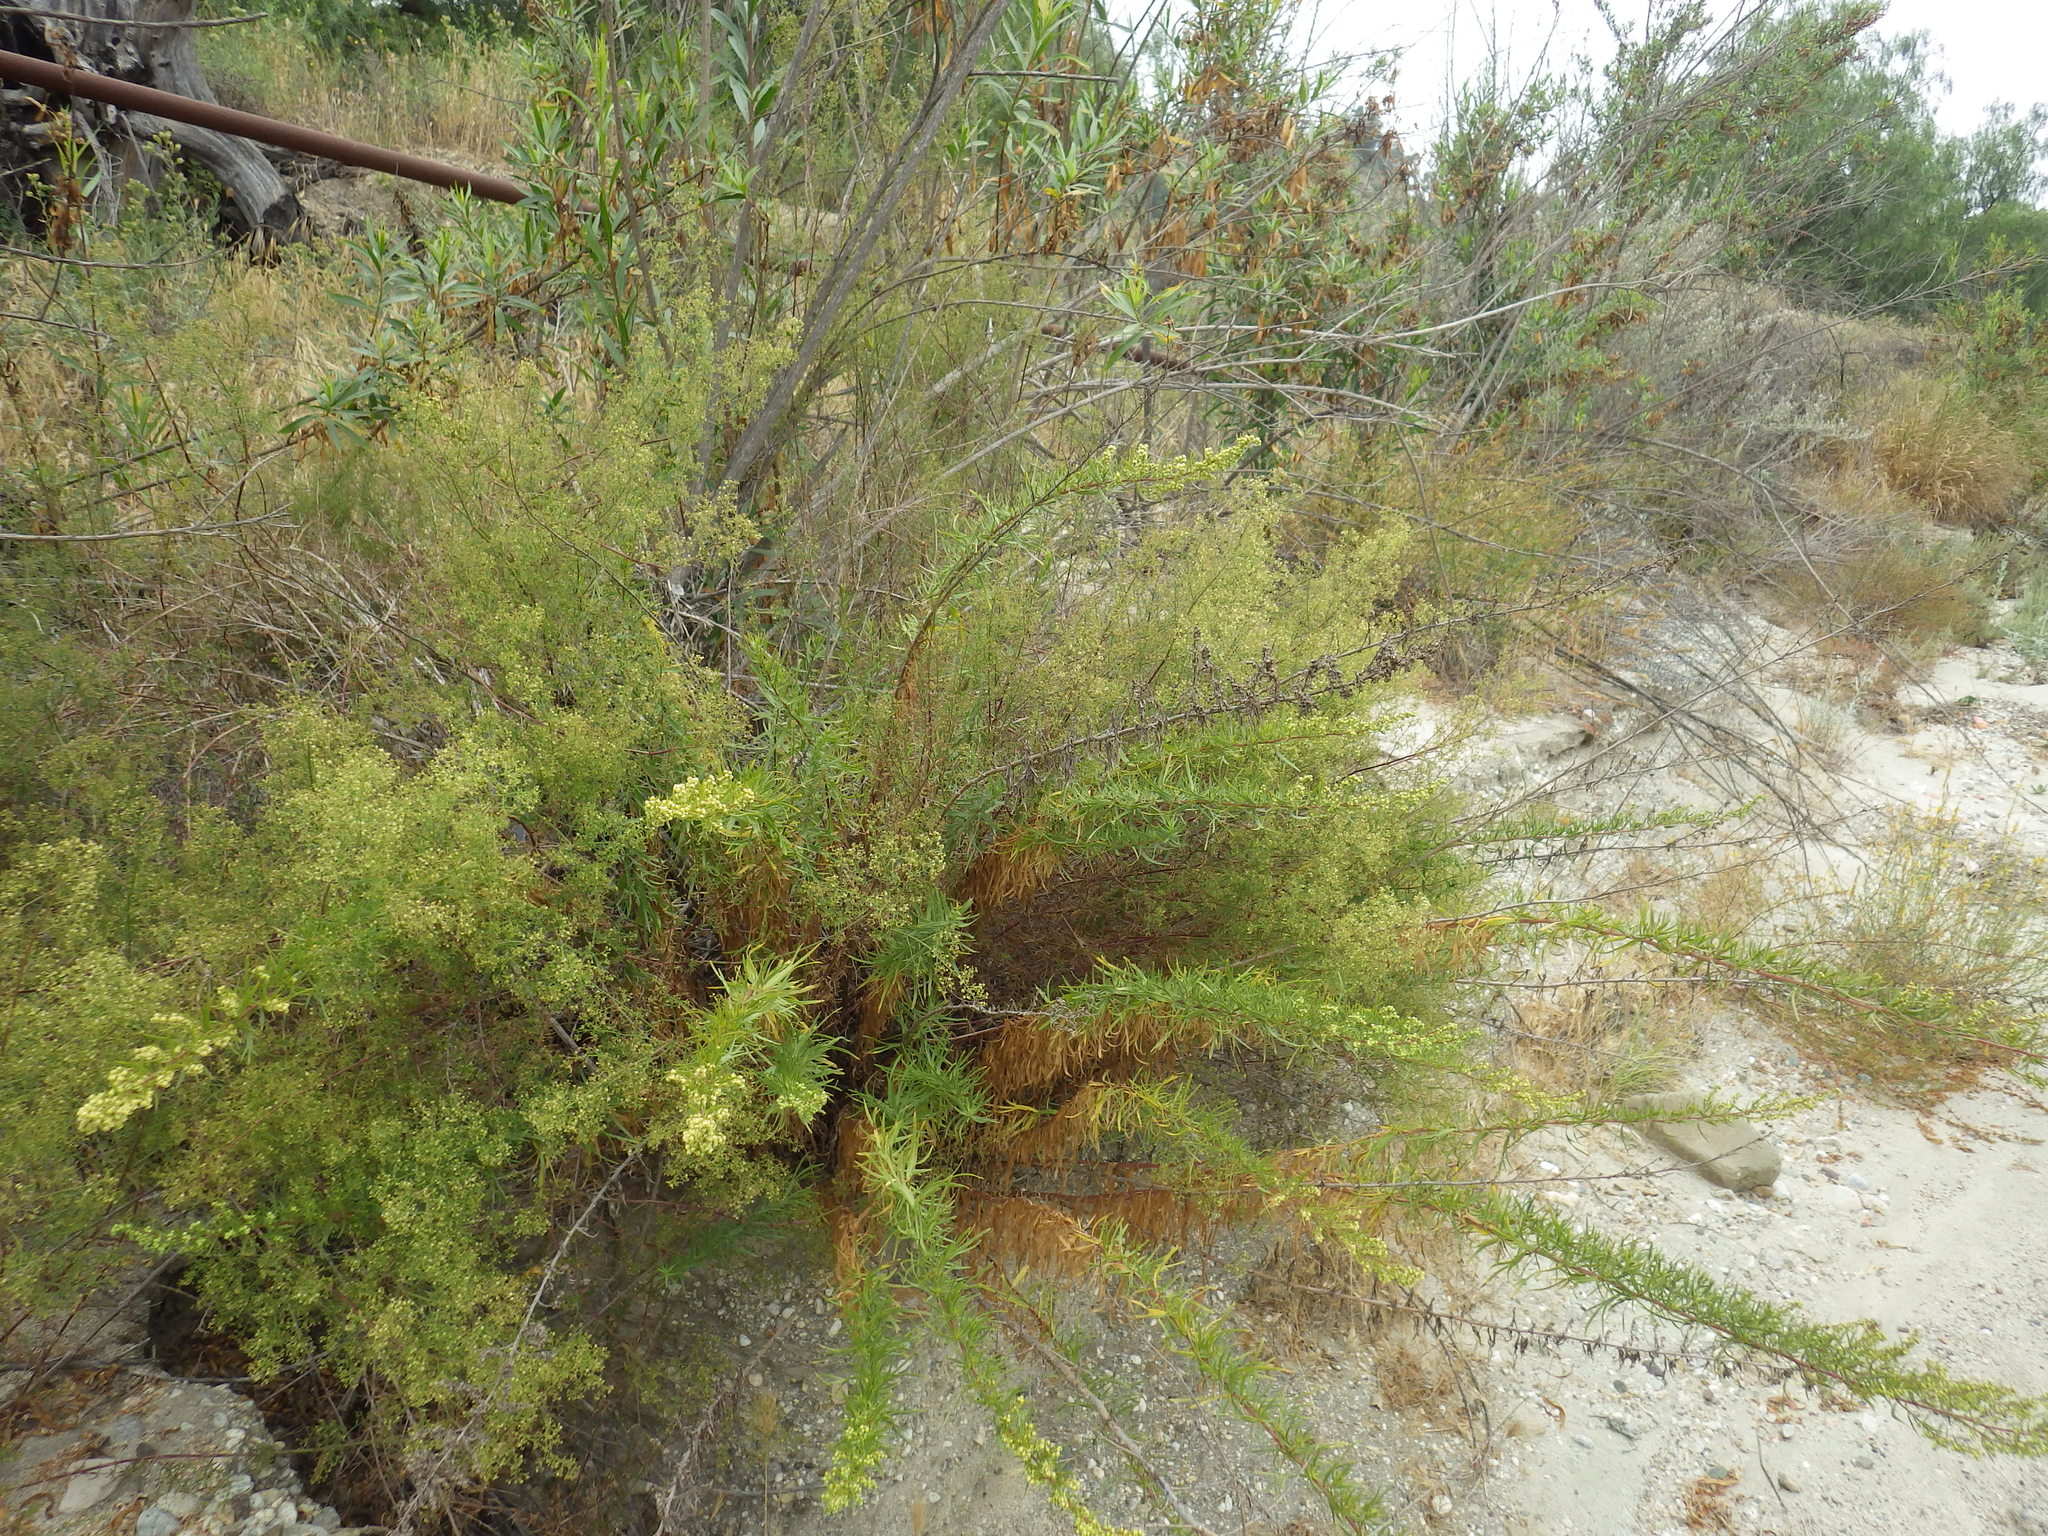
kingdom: Plantae
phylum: Tracheophyta
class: Magnoliopsida
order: Asterales
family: Asteraceae
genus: Artemisia
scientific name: Artemisia dracunculus
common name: Tarragon
